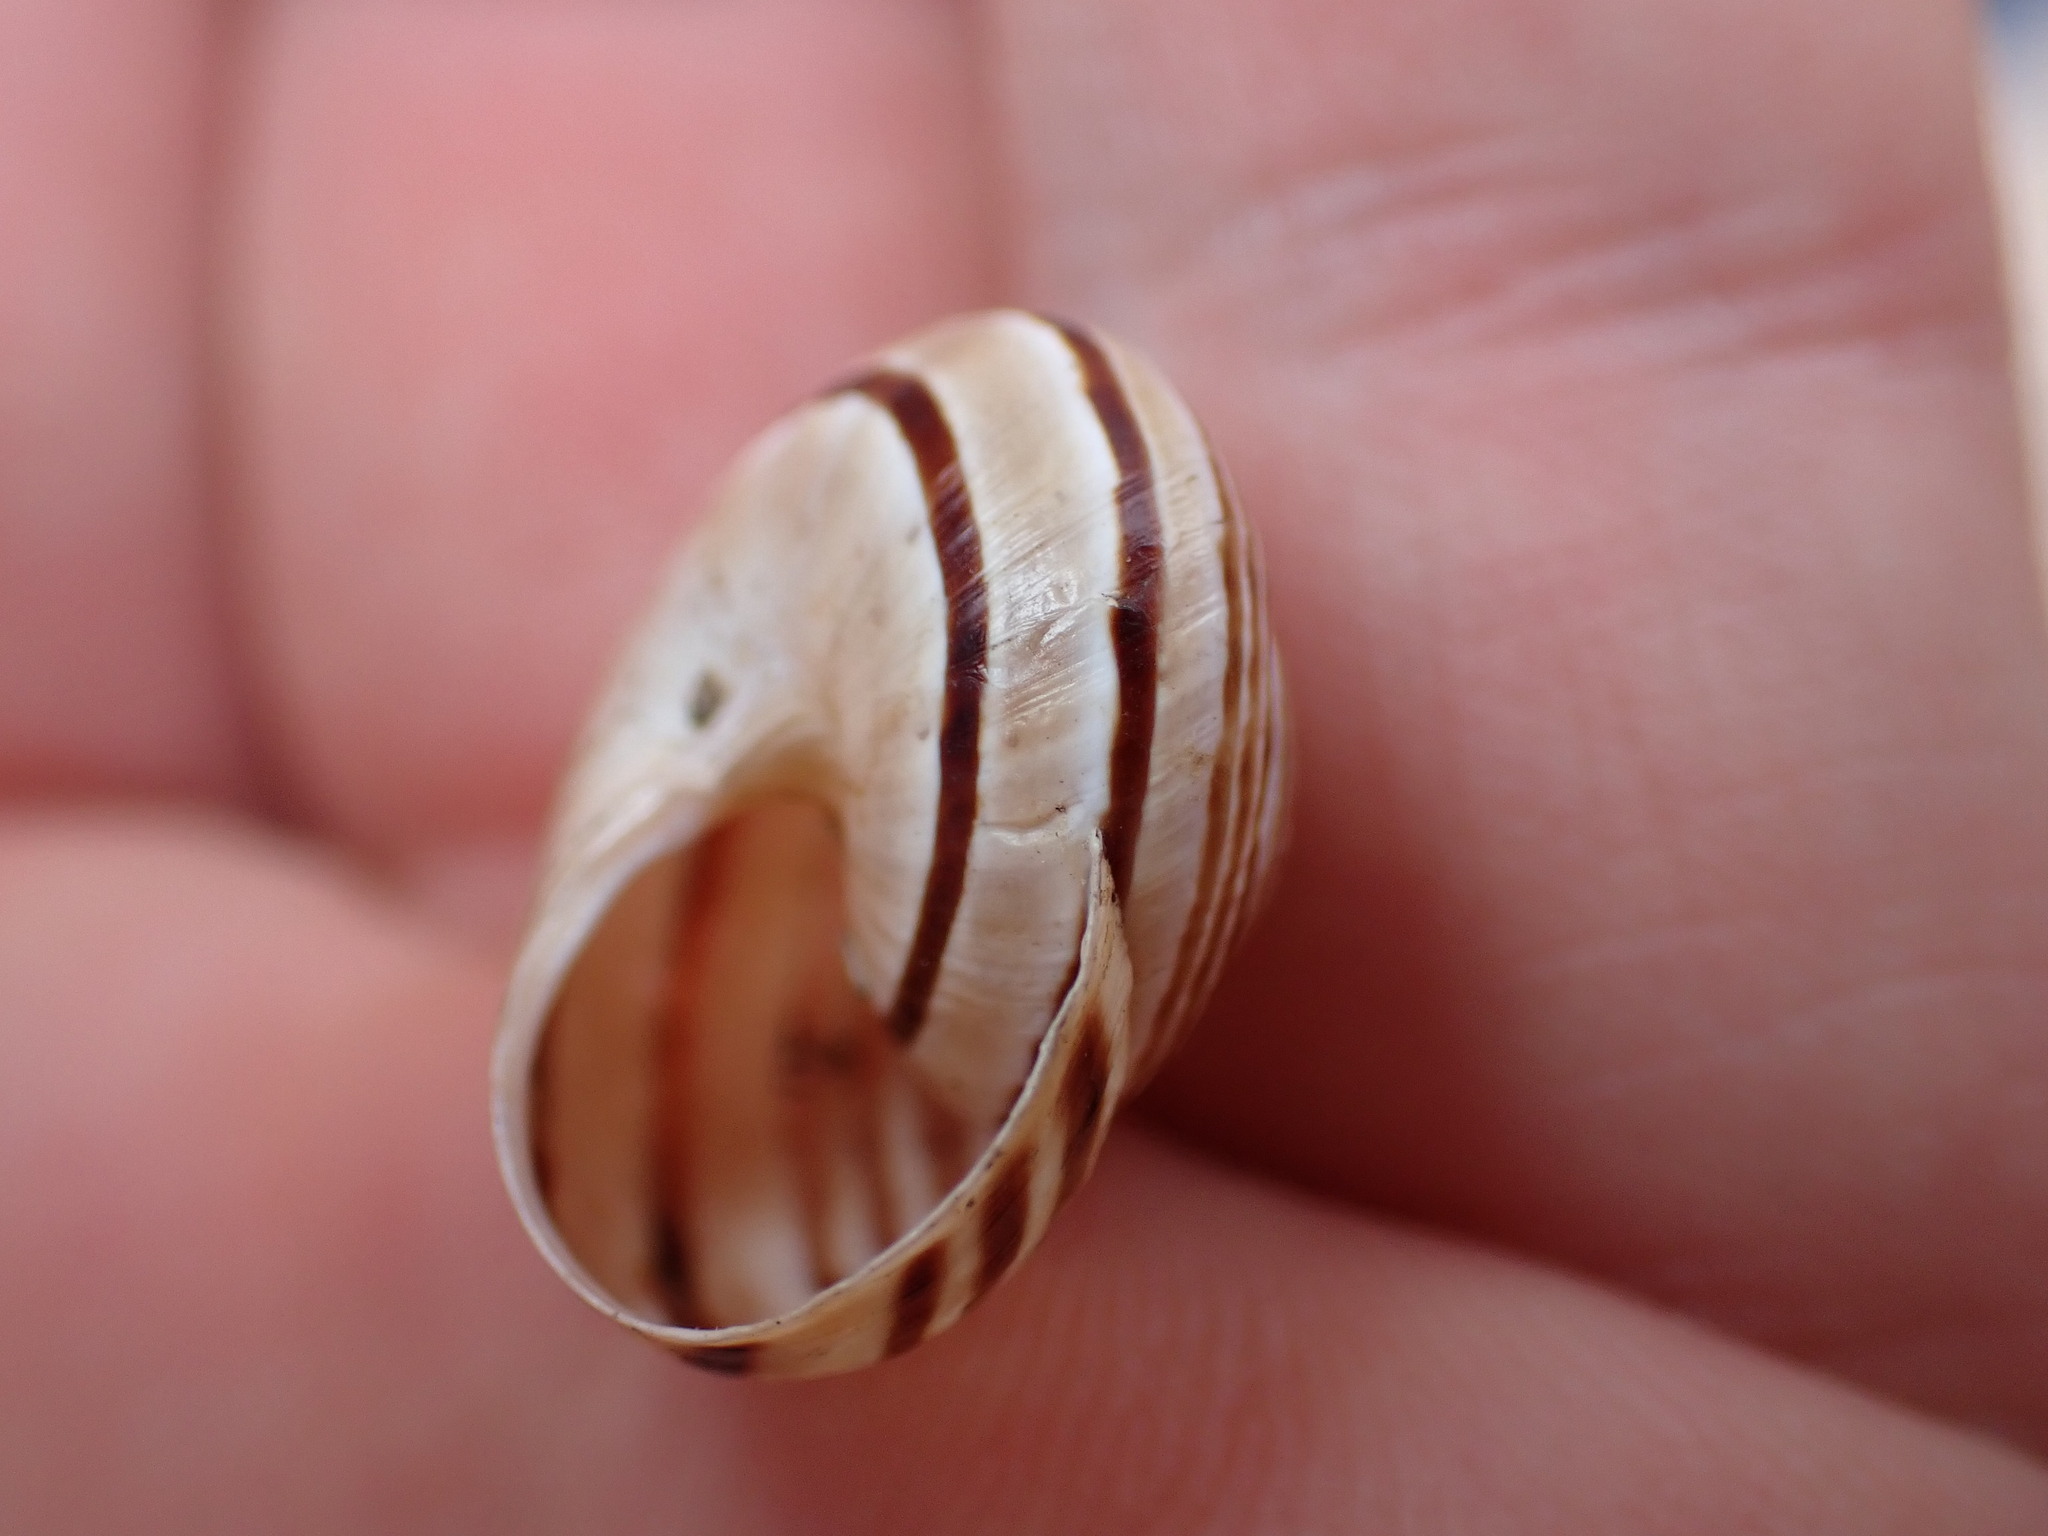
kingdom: Animalia
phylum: Mollusca
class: Gastropoda
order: Stylommatophora
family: Helicidae
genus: Pseudotachea
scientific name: Pseudotachea splendida
